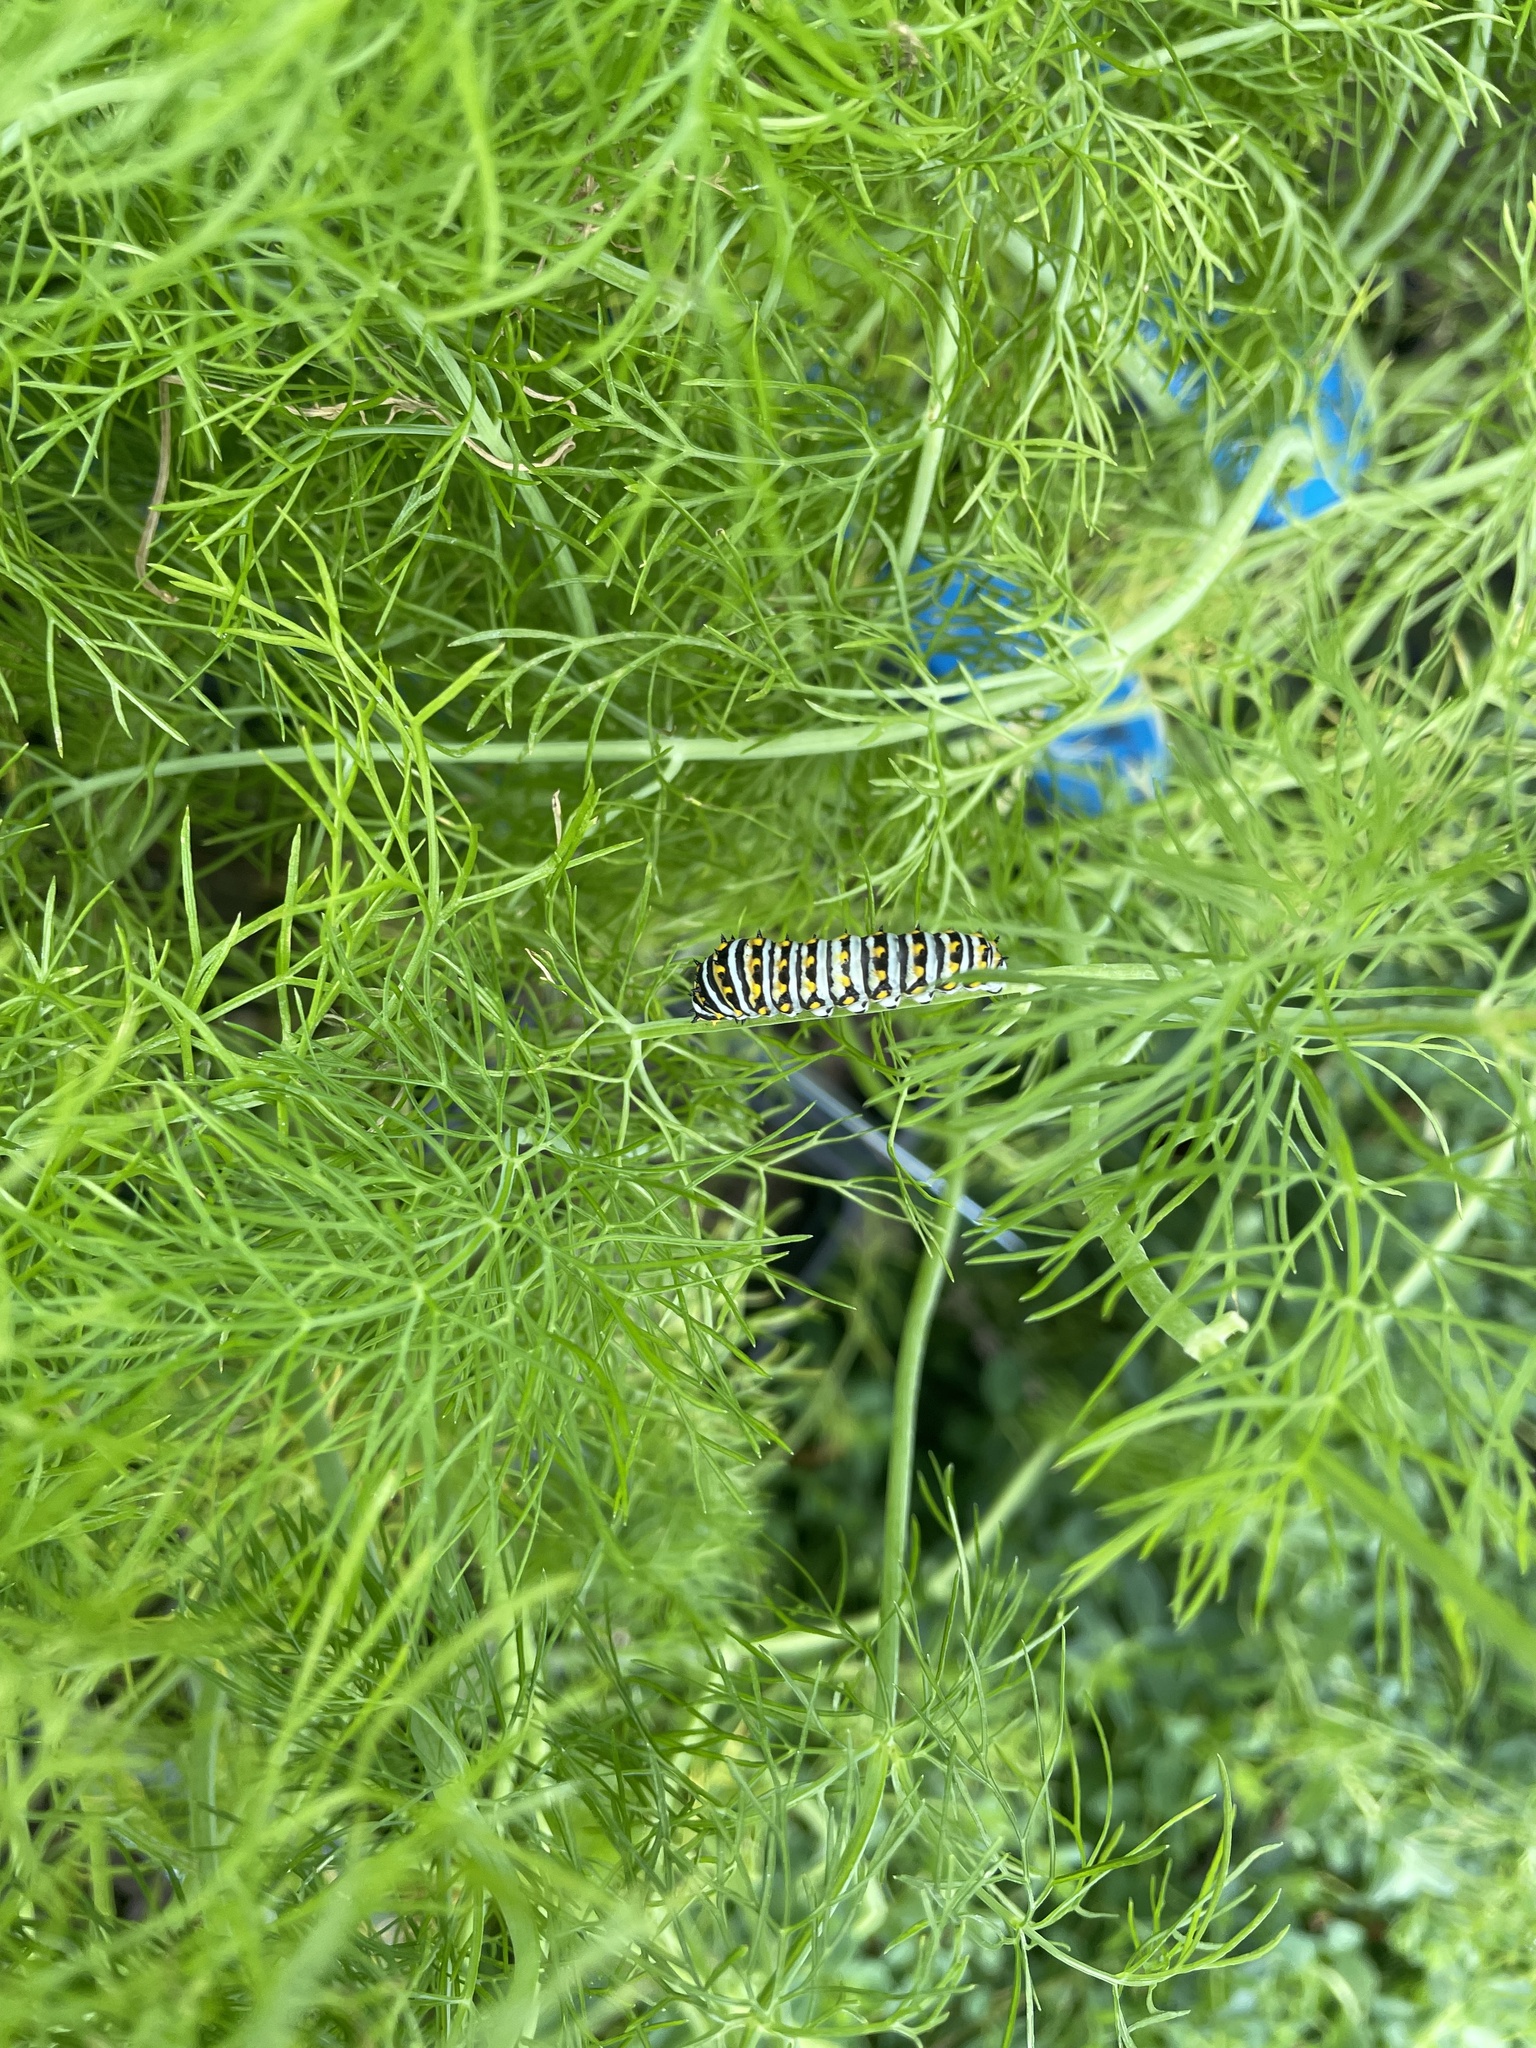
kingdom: Animalia
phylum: Arthropoda
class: Insecta
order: Lepidoptera
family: Papilionidae
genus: Papilio
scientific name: Papilio polyxenes
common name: Black swallowtail
